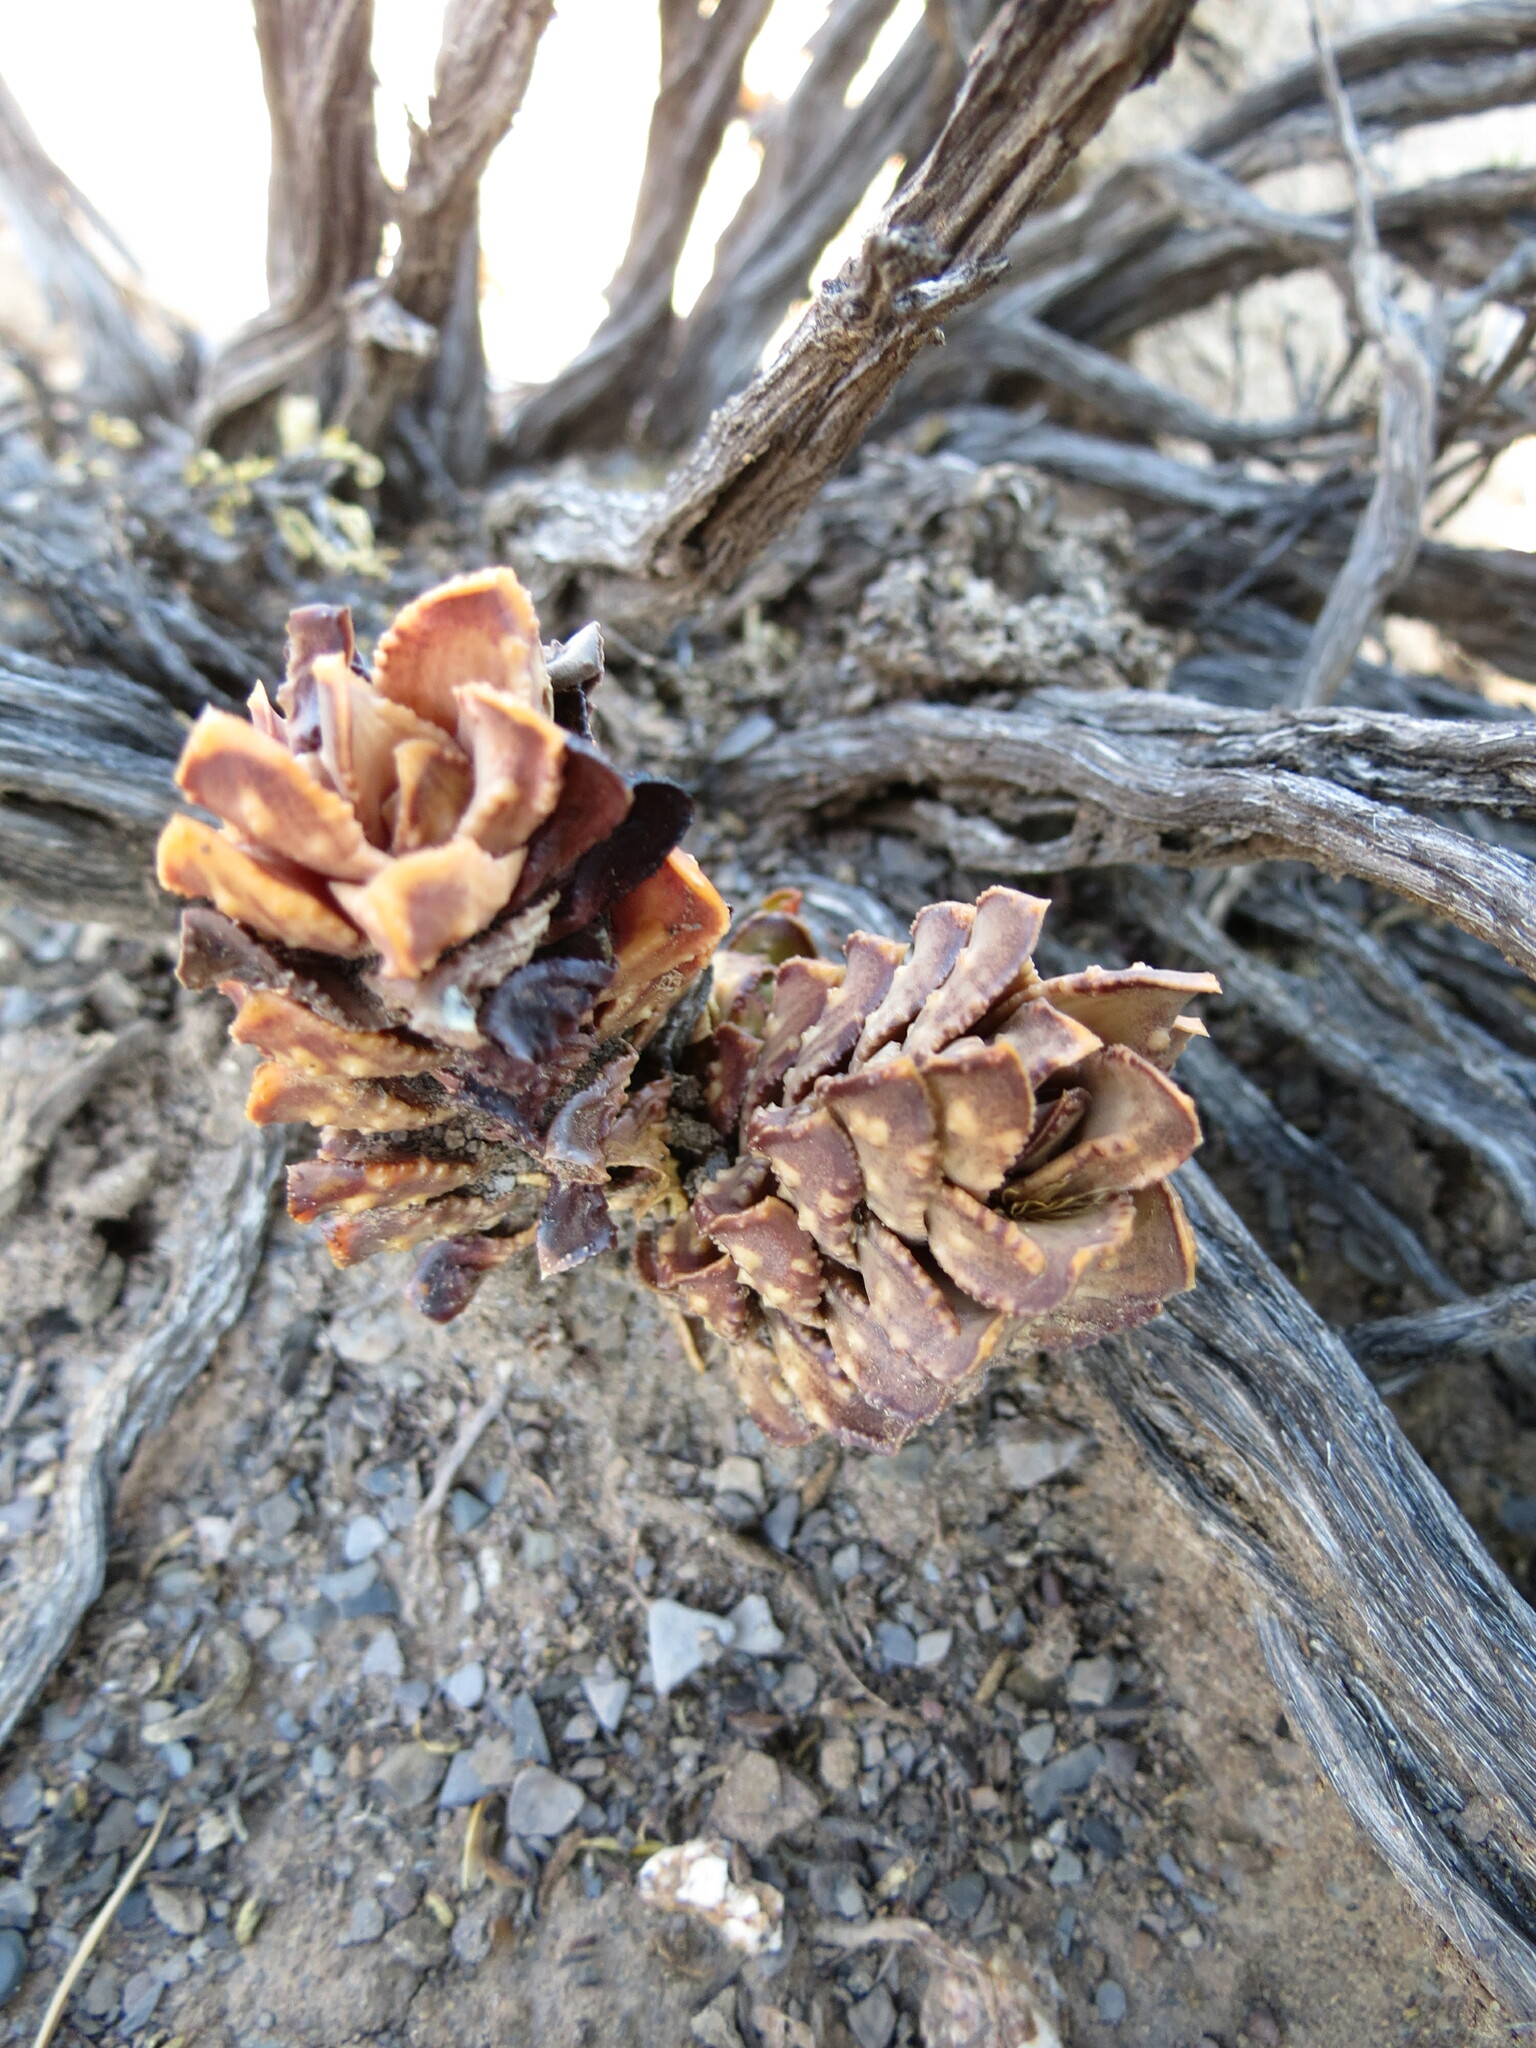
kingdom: Plantae
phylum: Tracheophyta
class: Liliopsida
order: Asparagales
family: Asphodelaceae
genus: Astroloba
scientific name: Astroloba bullulata
